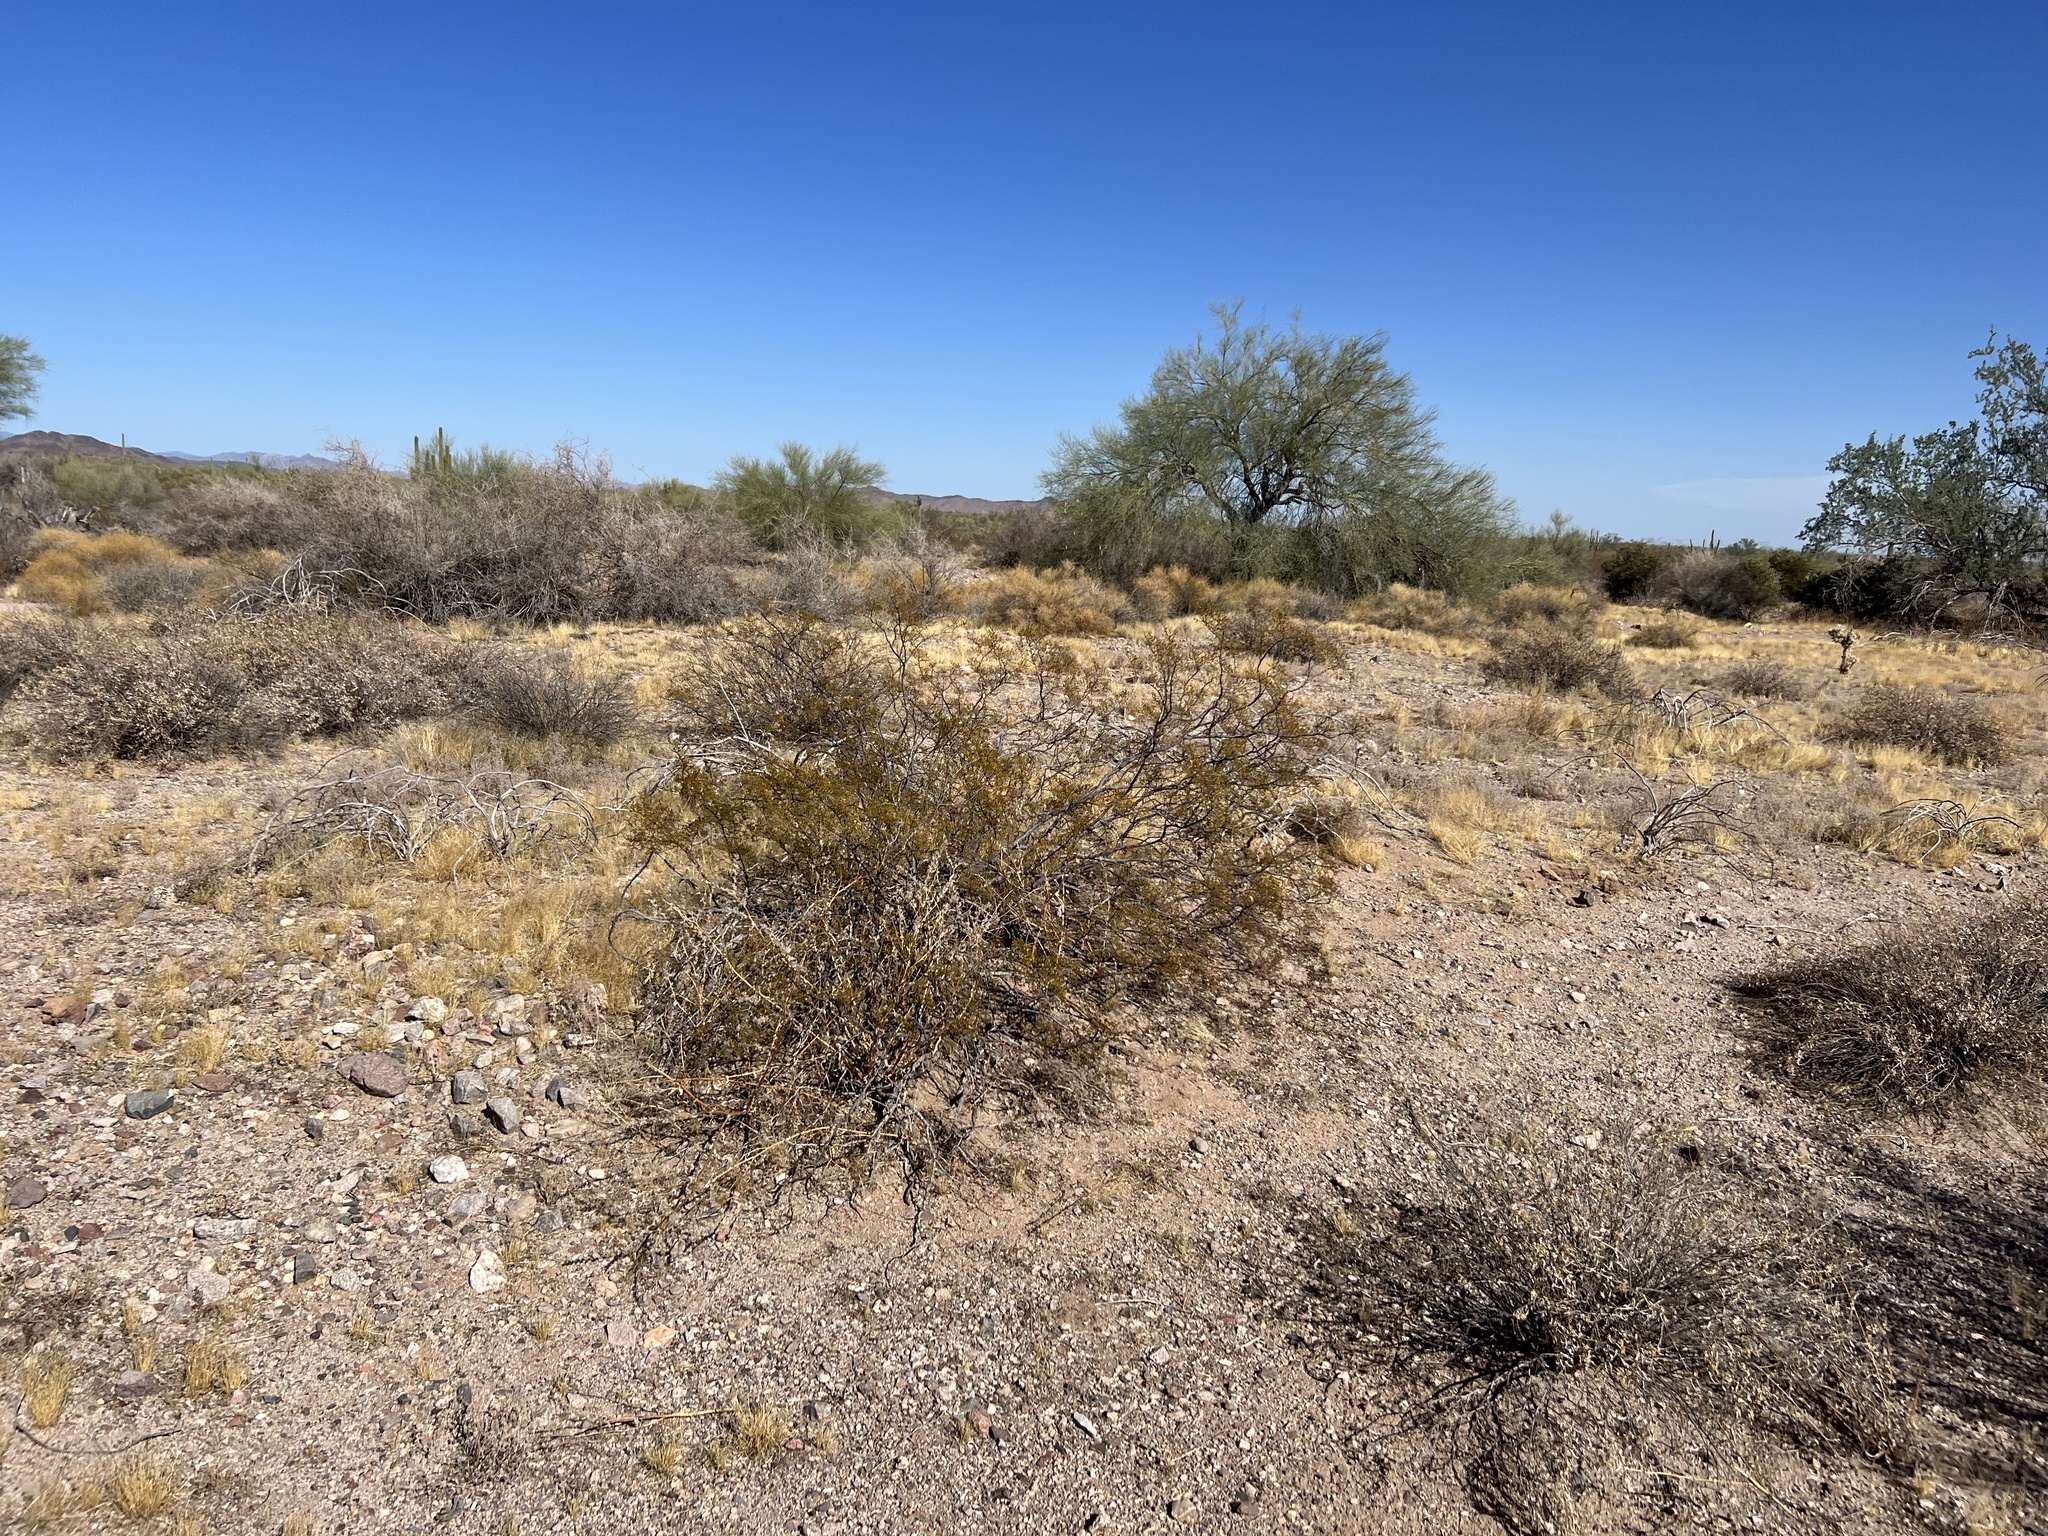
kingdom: Plantae
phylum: Tracheophyta
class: Magnoliopsida
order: Zygophyllales
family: Zygophyllaceae
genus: Larrea
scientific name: Larrea tridentata
